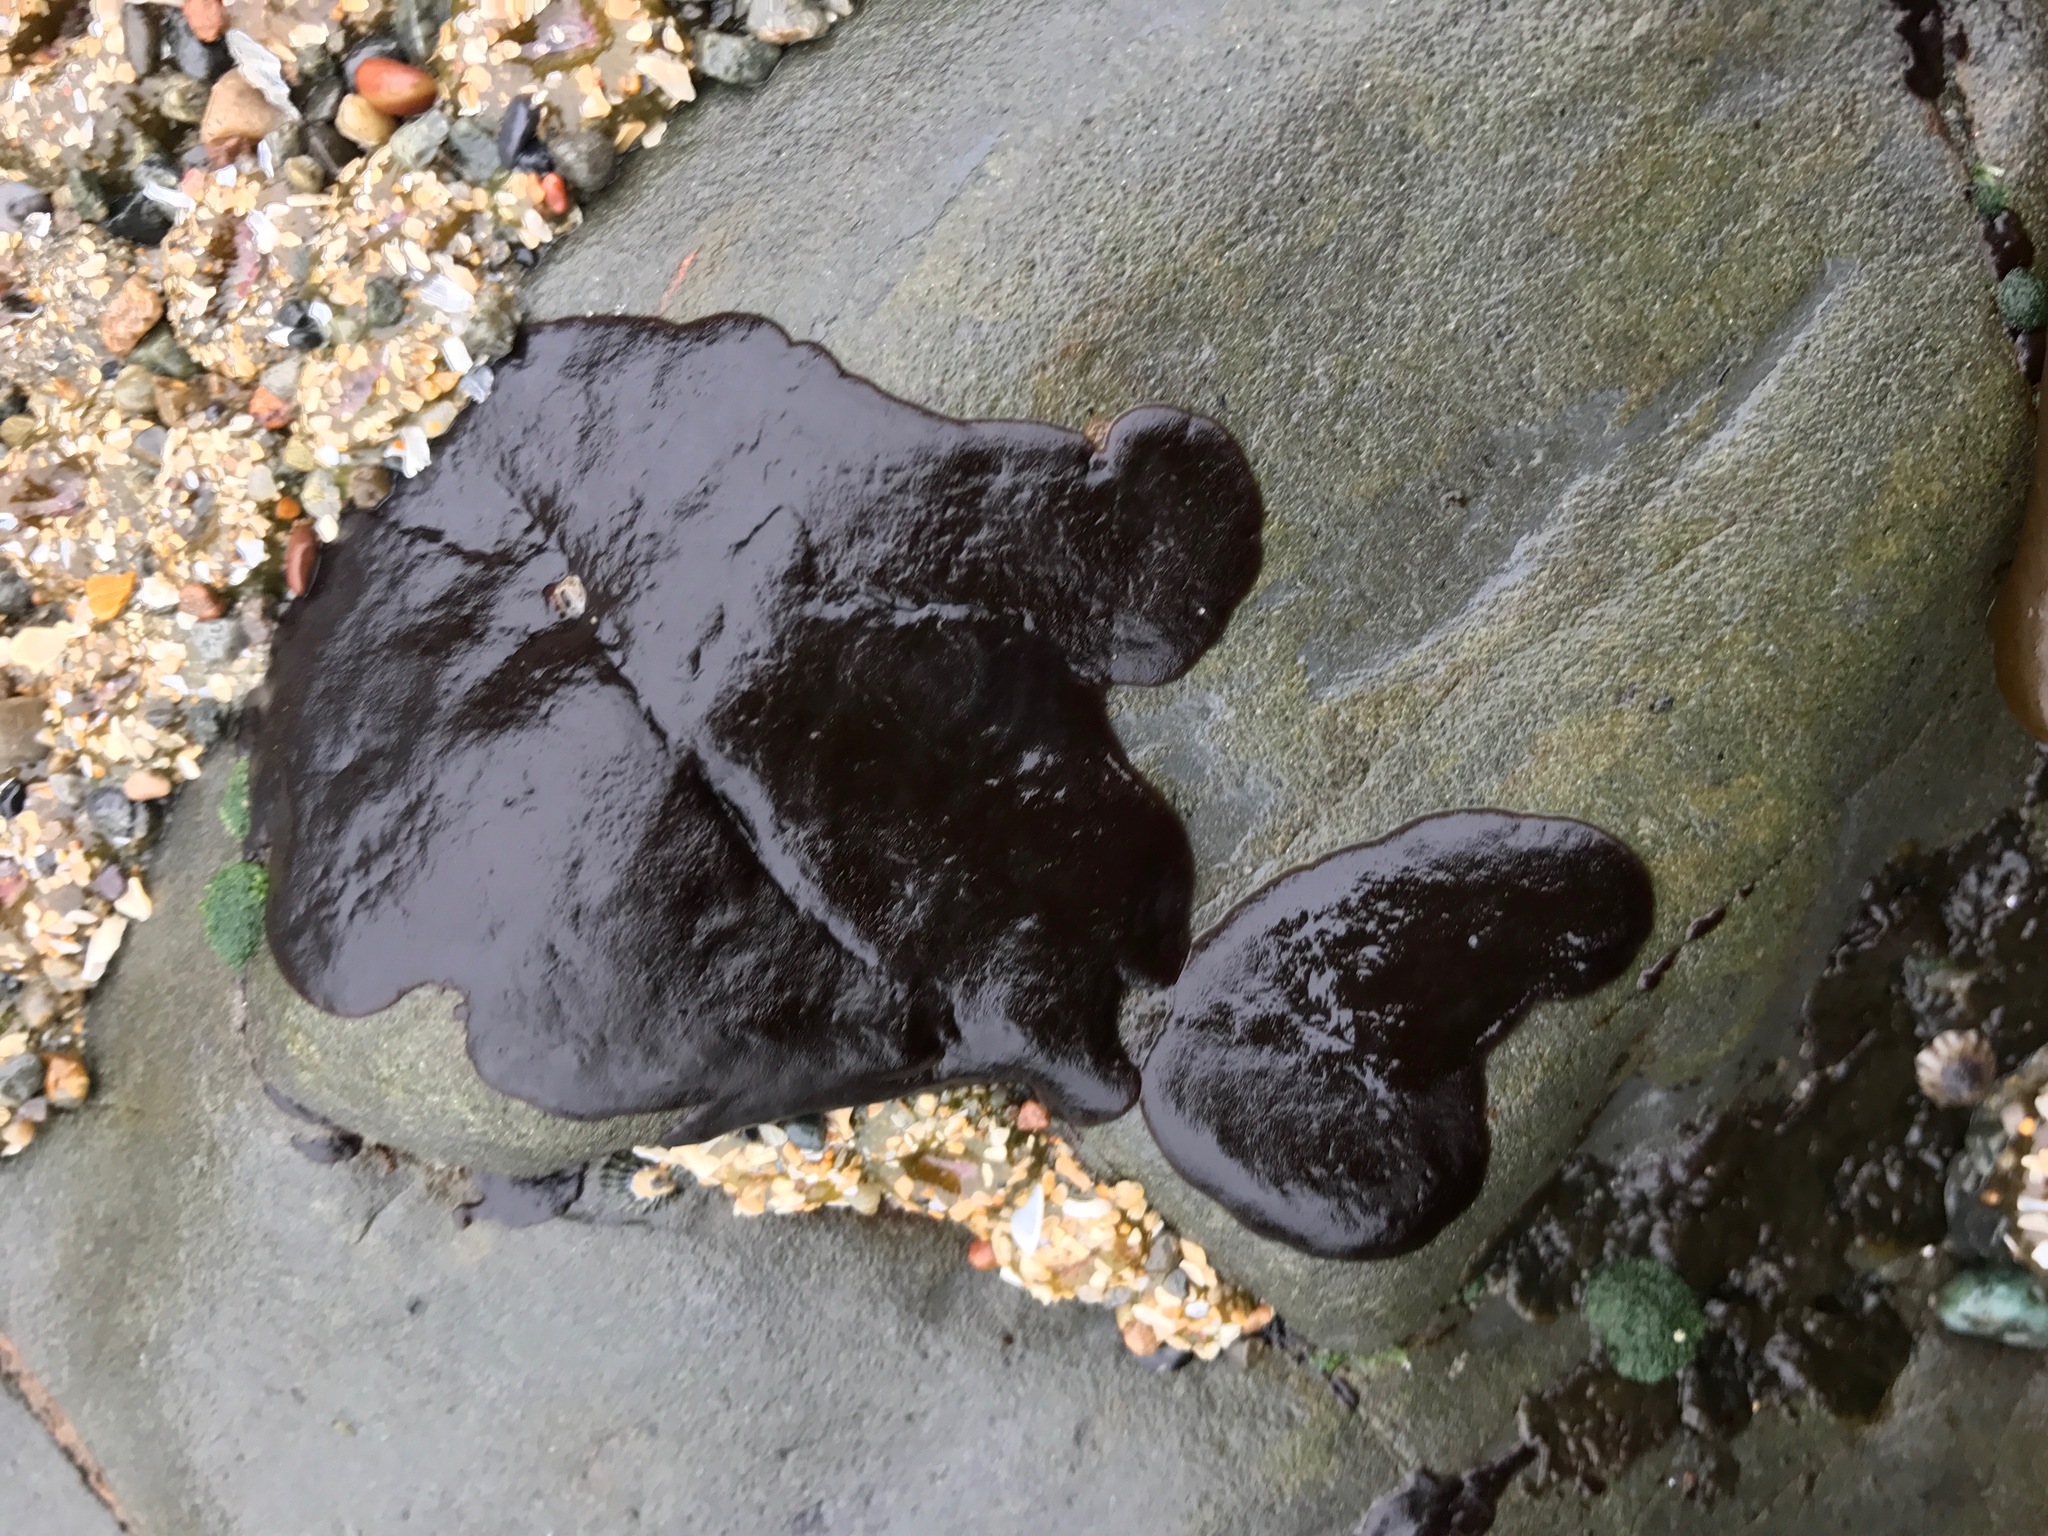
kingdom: Plantae
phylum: Rhodophyta
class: Florideophyceae
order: Gigartinales
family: Phyllophoraceae
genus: Mastocarpus
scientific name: Mastocarpus papillatus
